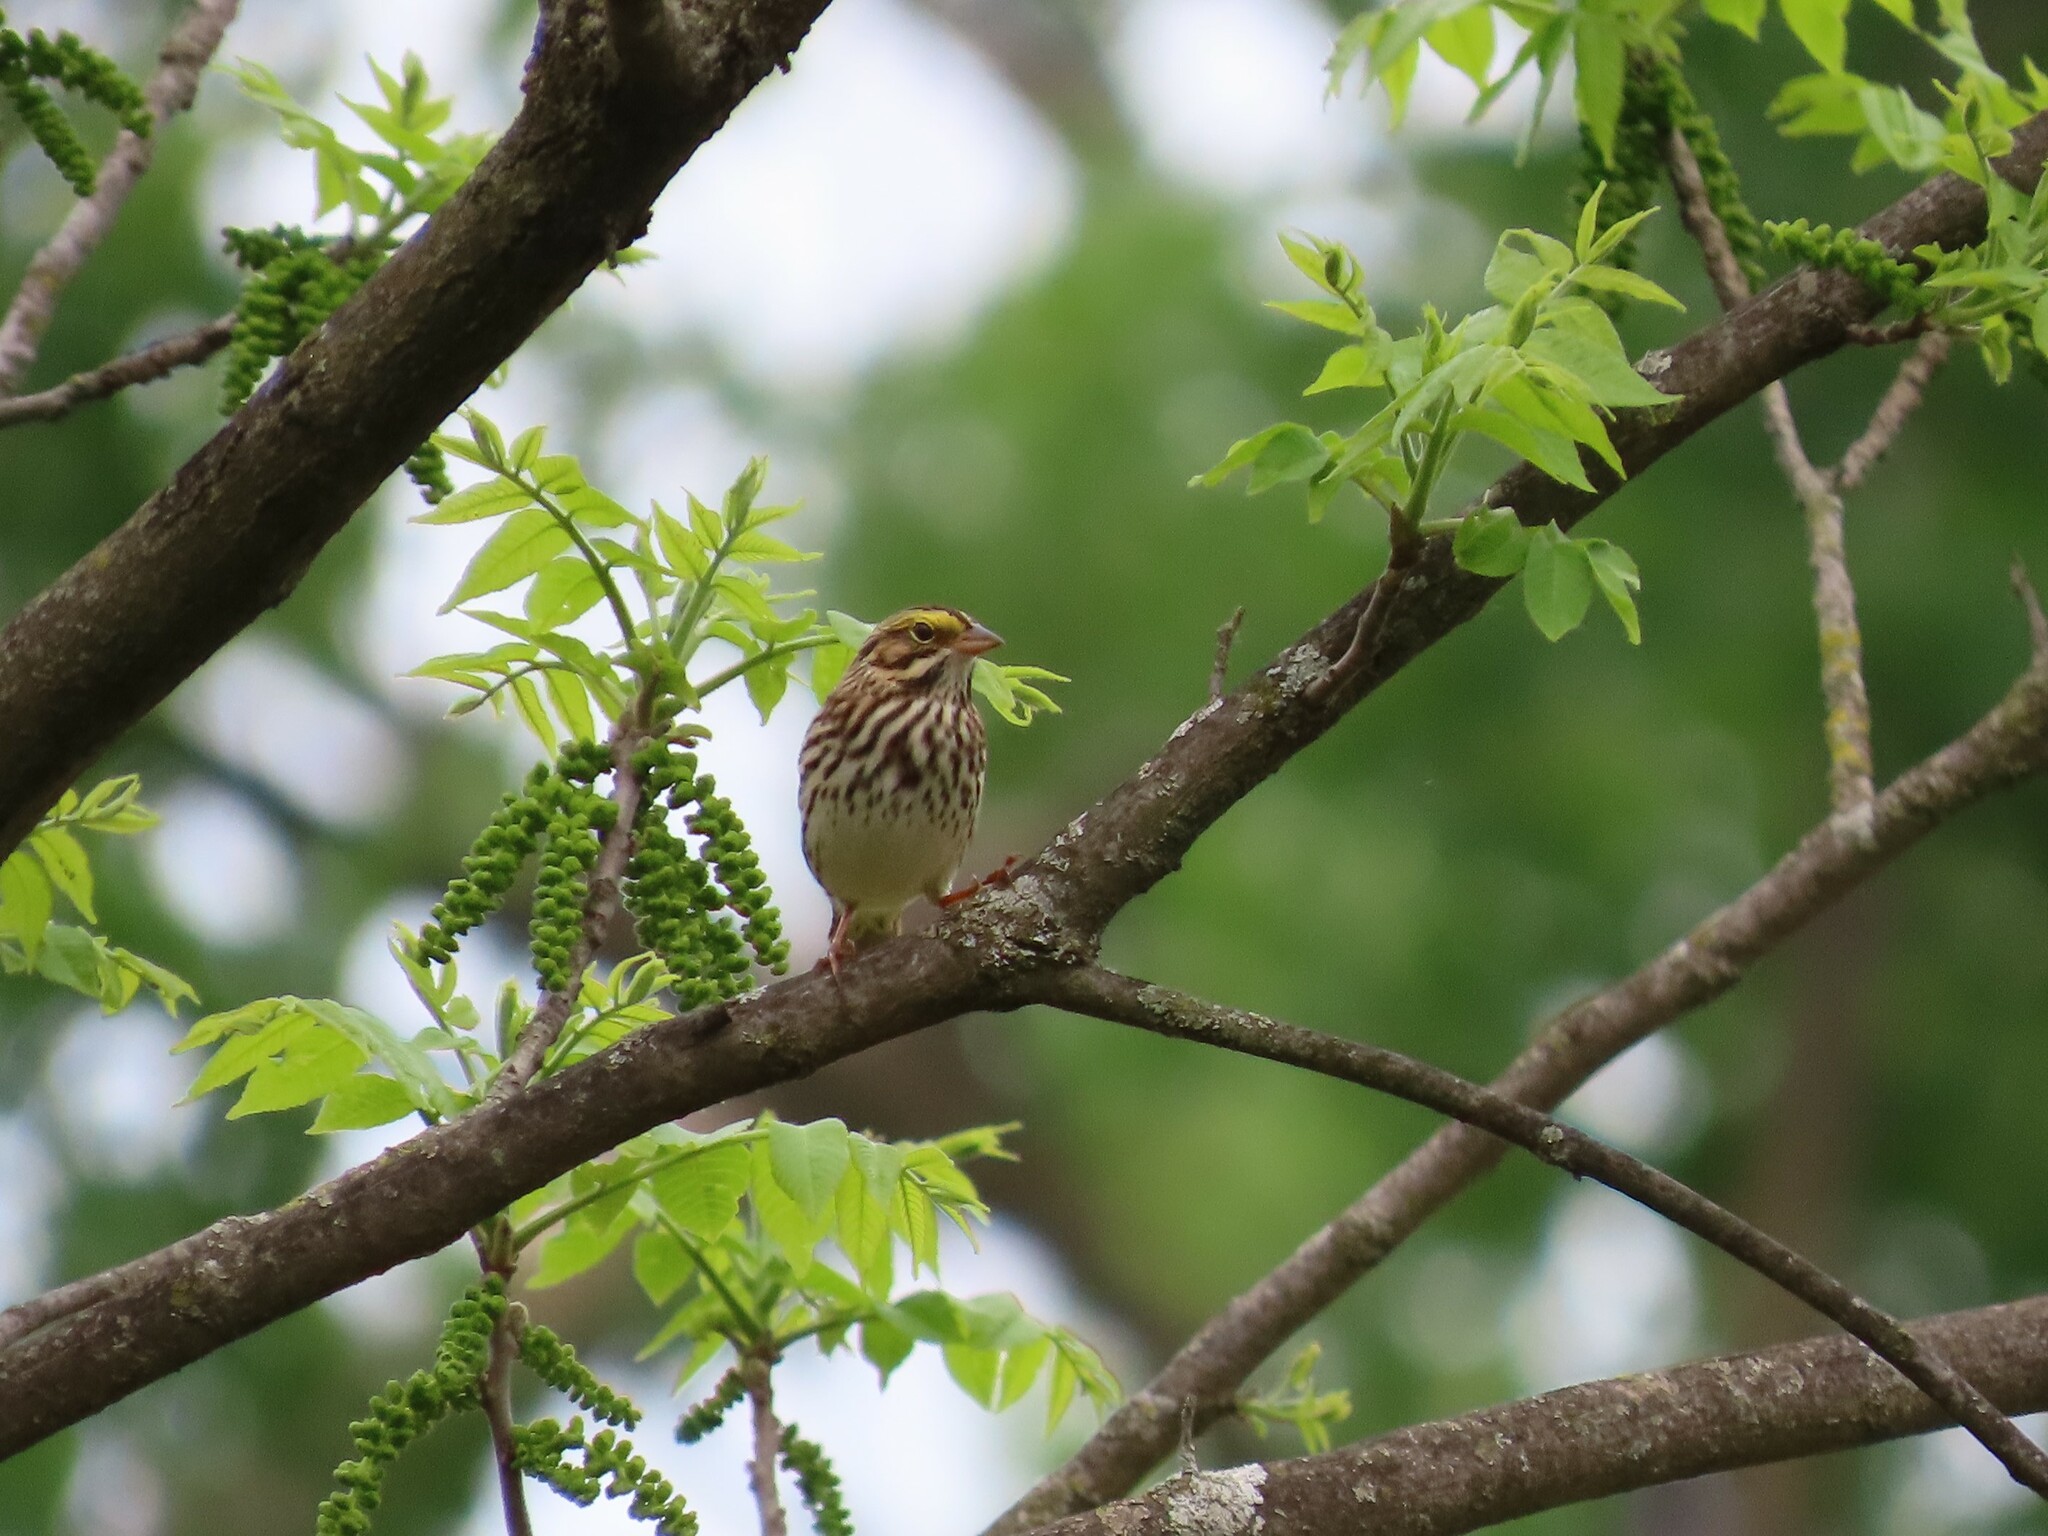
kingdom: Animalia
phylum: Chordata
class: Aves
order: Passeriformes
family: Passerellidae
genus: Passerculus
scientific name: Passerculus sandwichensis
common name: Savannah sparrow
